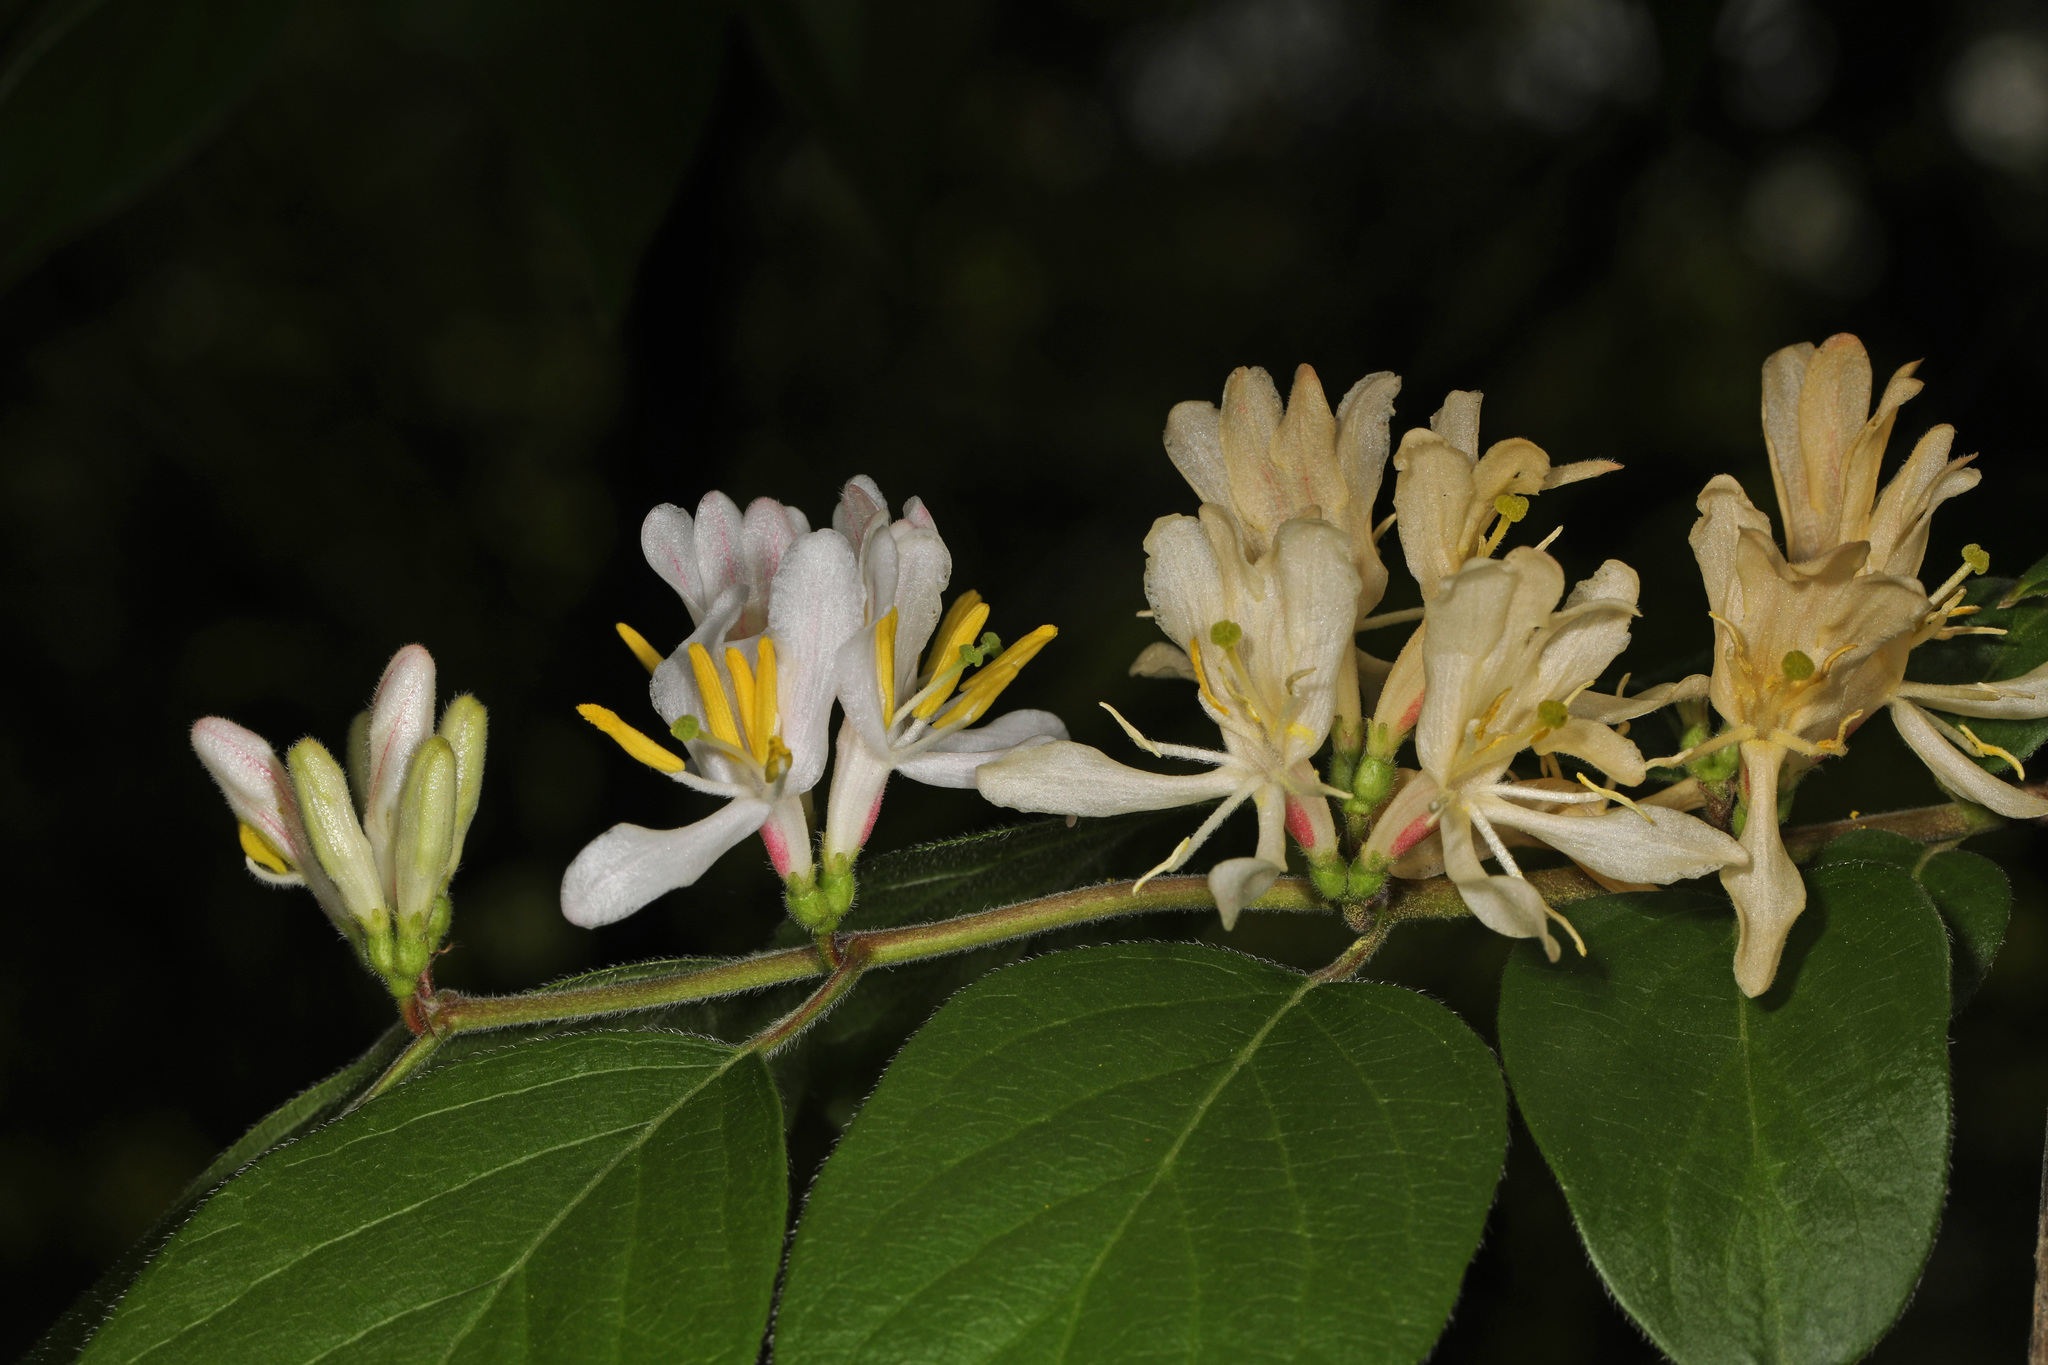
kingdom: Plantae
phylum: Tracheophyta
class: Magnoliopsida
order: Dipsacales
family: Caprifoliaceae
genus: Lonicera
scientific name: Lonicera maackii
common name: Amur honeysuckle
